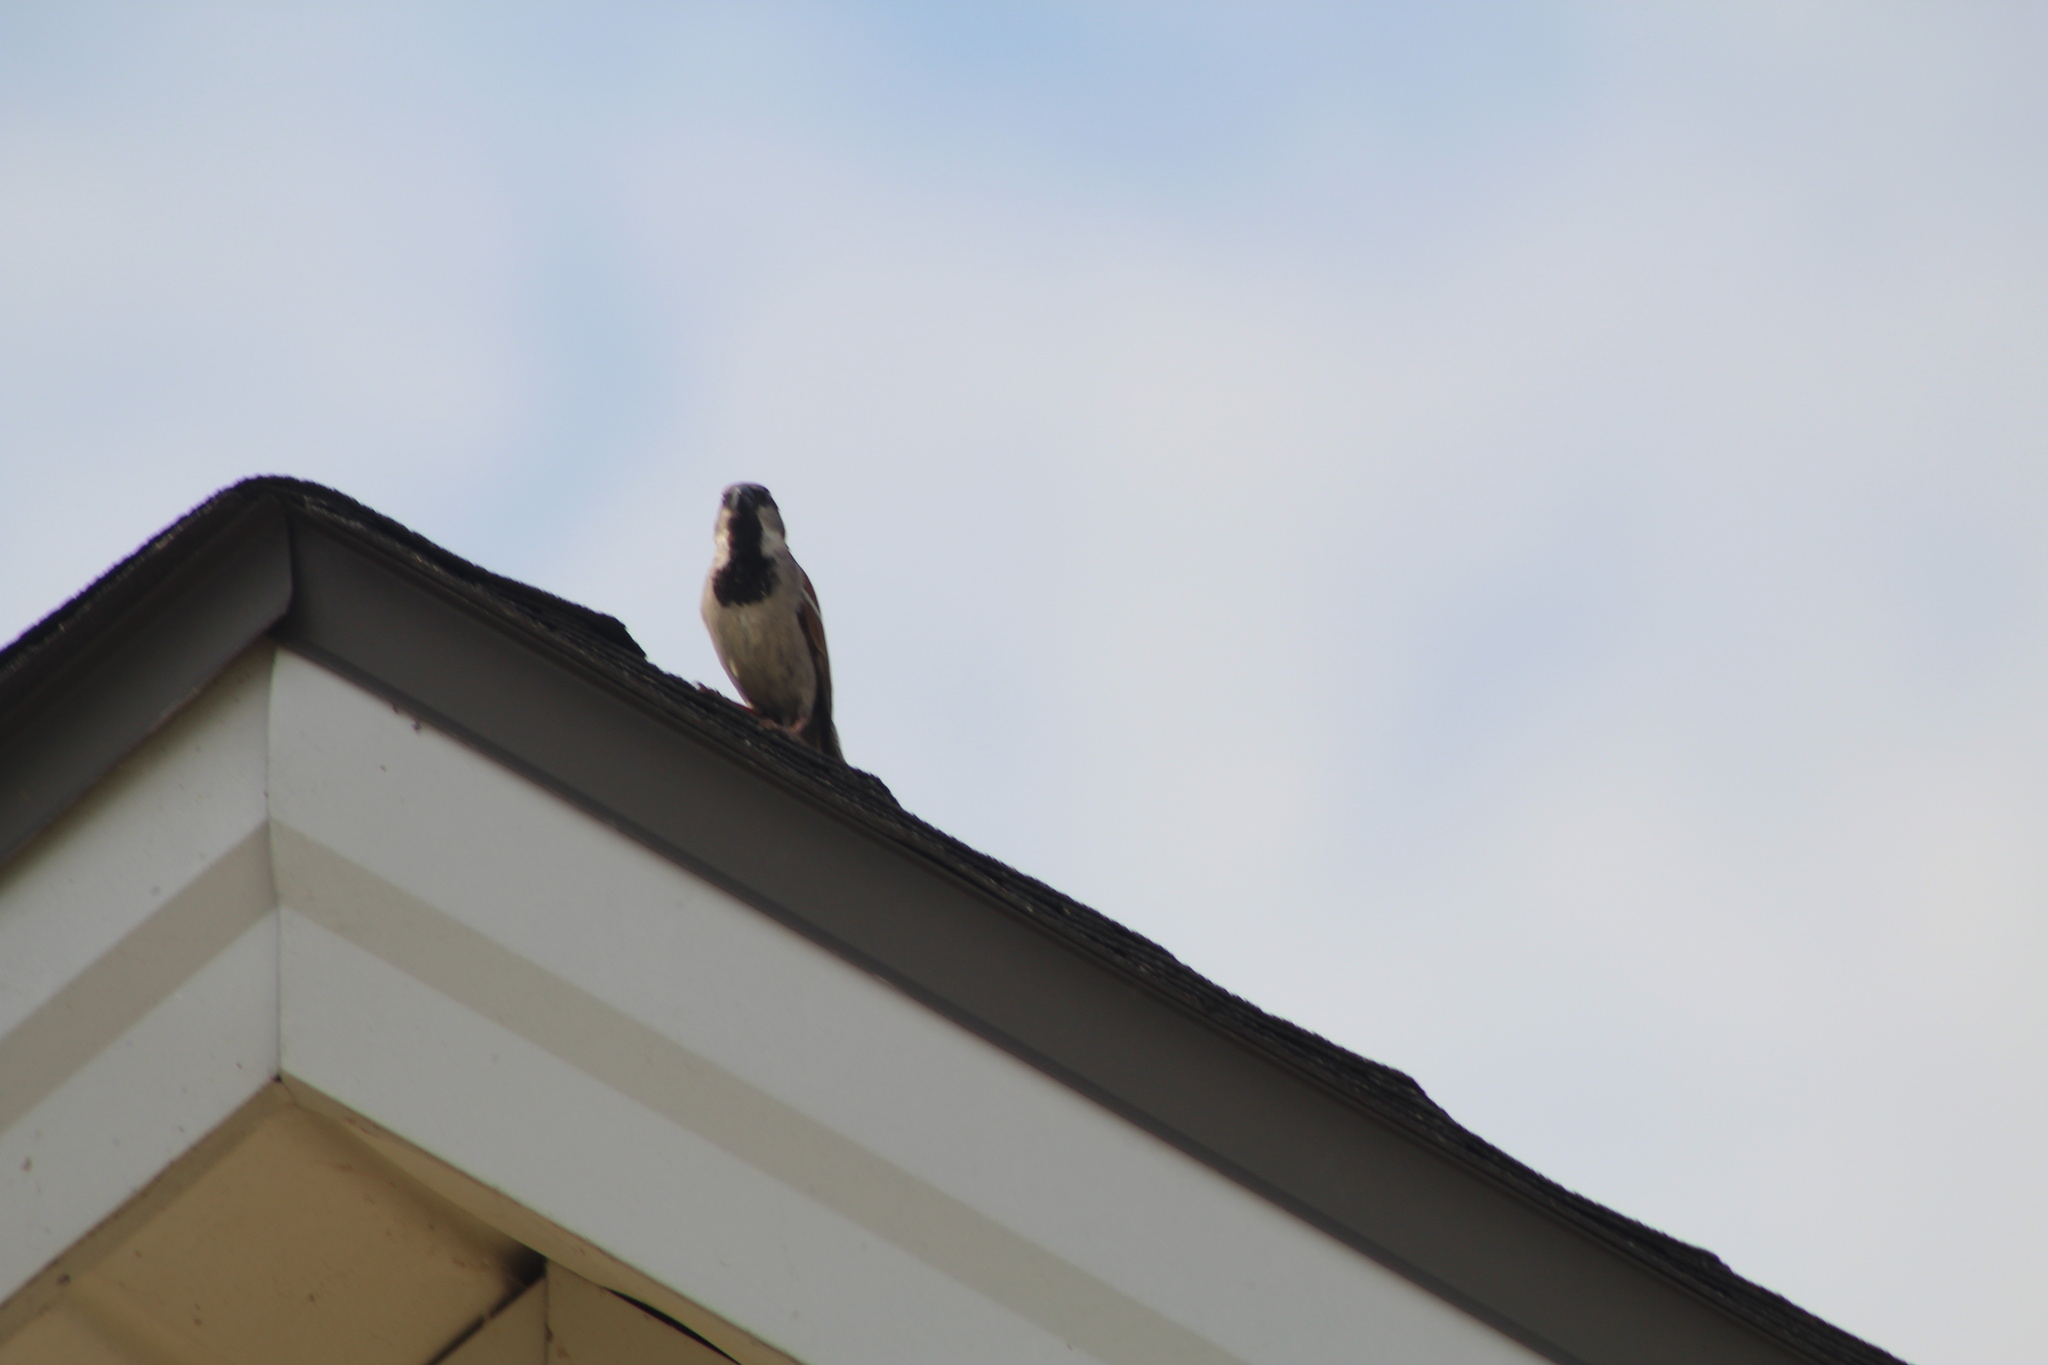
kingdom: Animalia
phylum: Chordata
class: Aves
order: Passeriformes
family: Passeridae
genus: Passer
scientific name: Passer domesticus
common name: House sparrow
